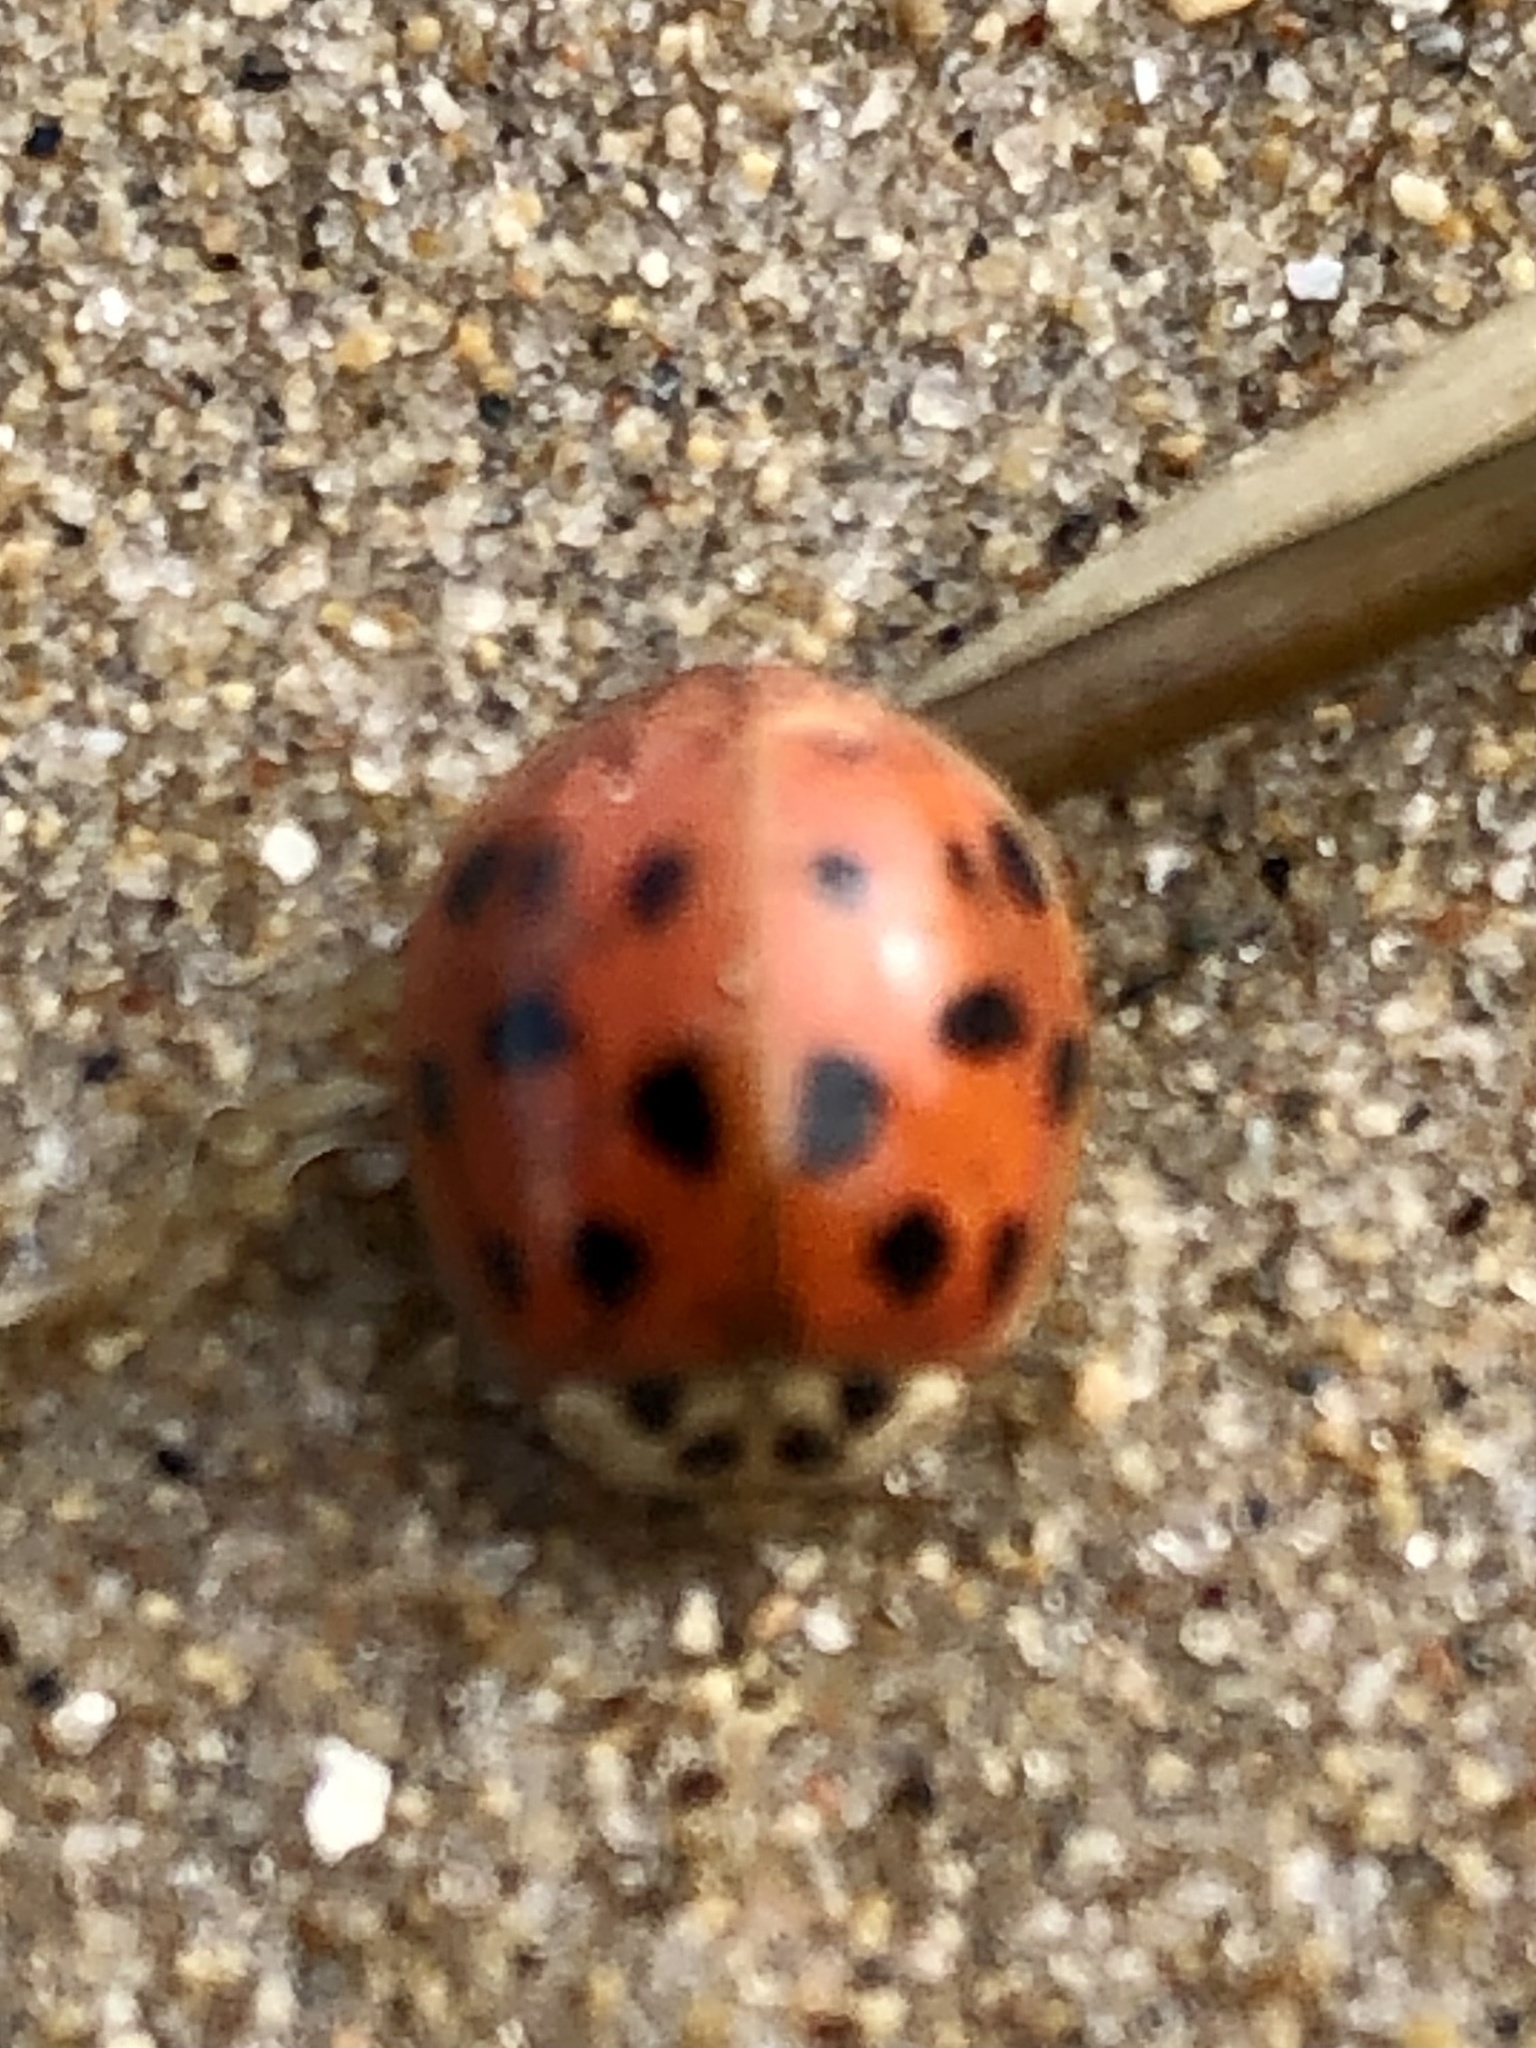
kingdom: Animalia
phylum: Arthropoda
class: Insecta
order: Coleoptera
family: Coccinellidae
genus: Harmonia
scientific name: Harmonia axyridis
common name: Harlequin ladybird
